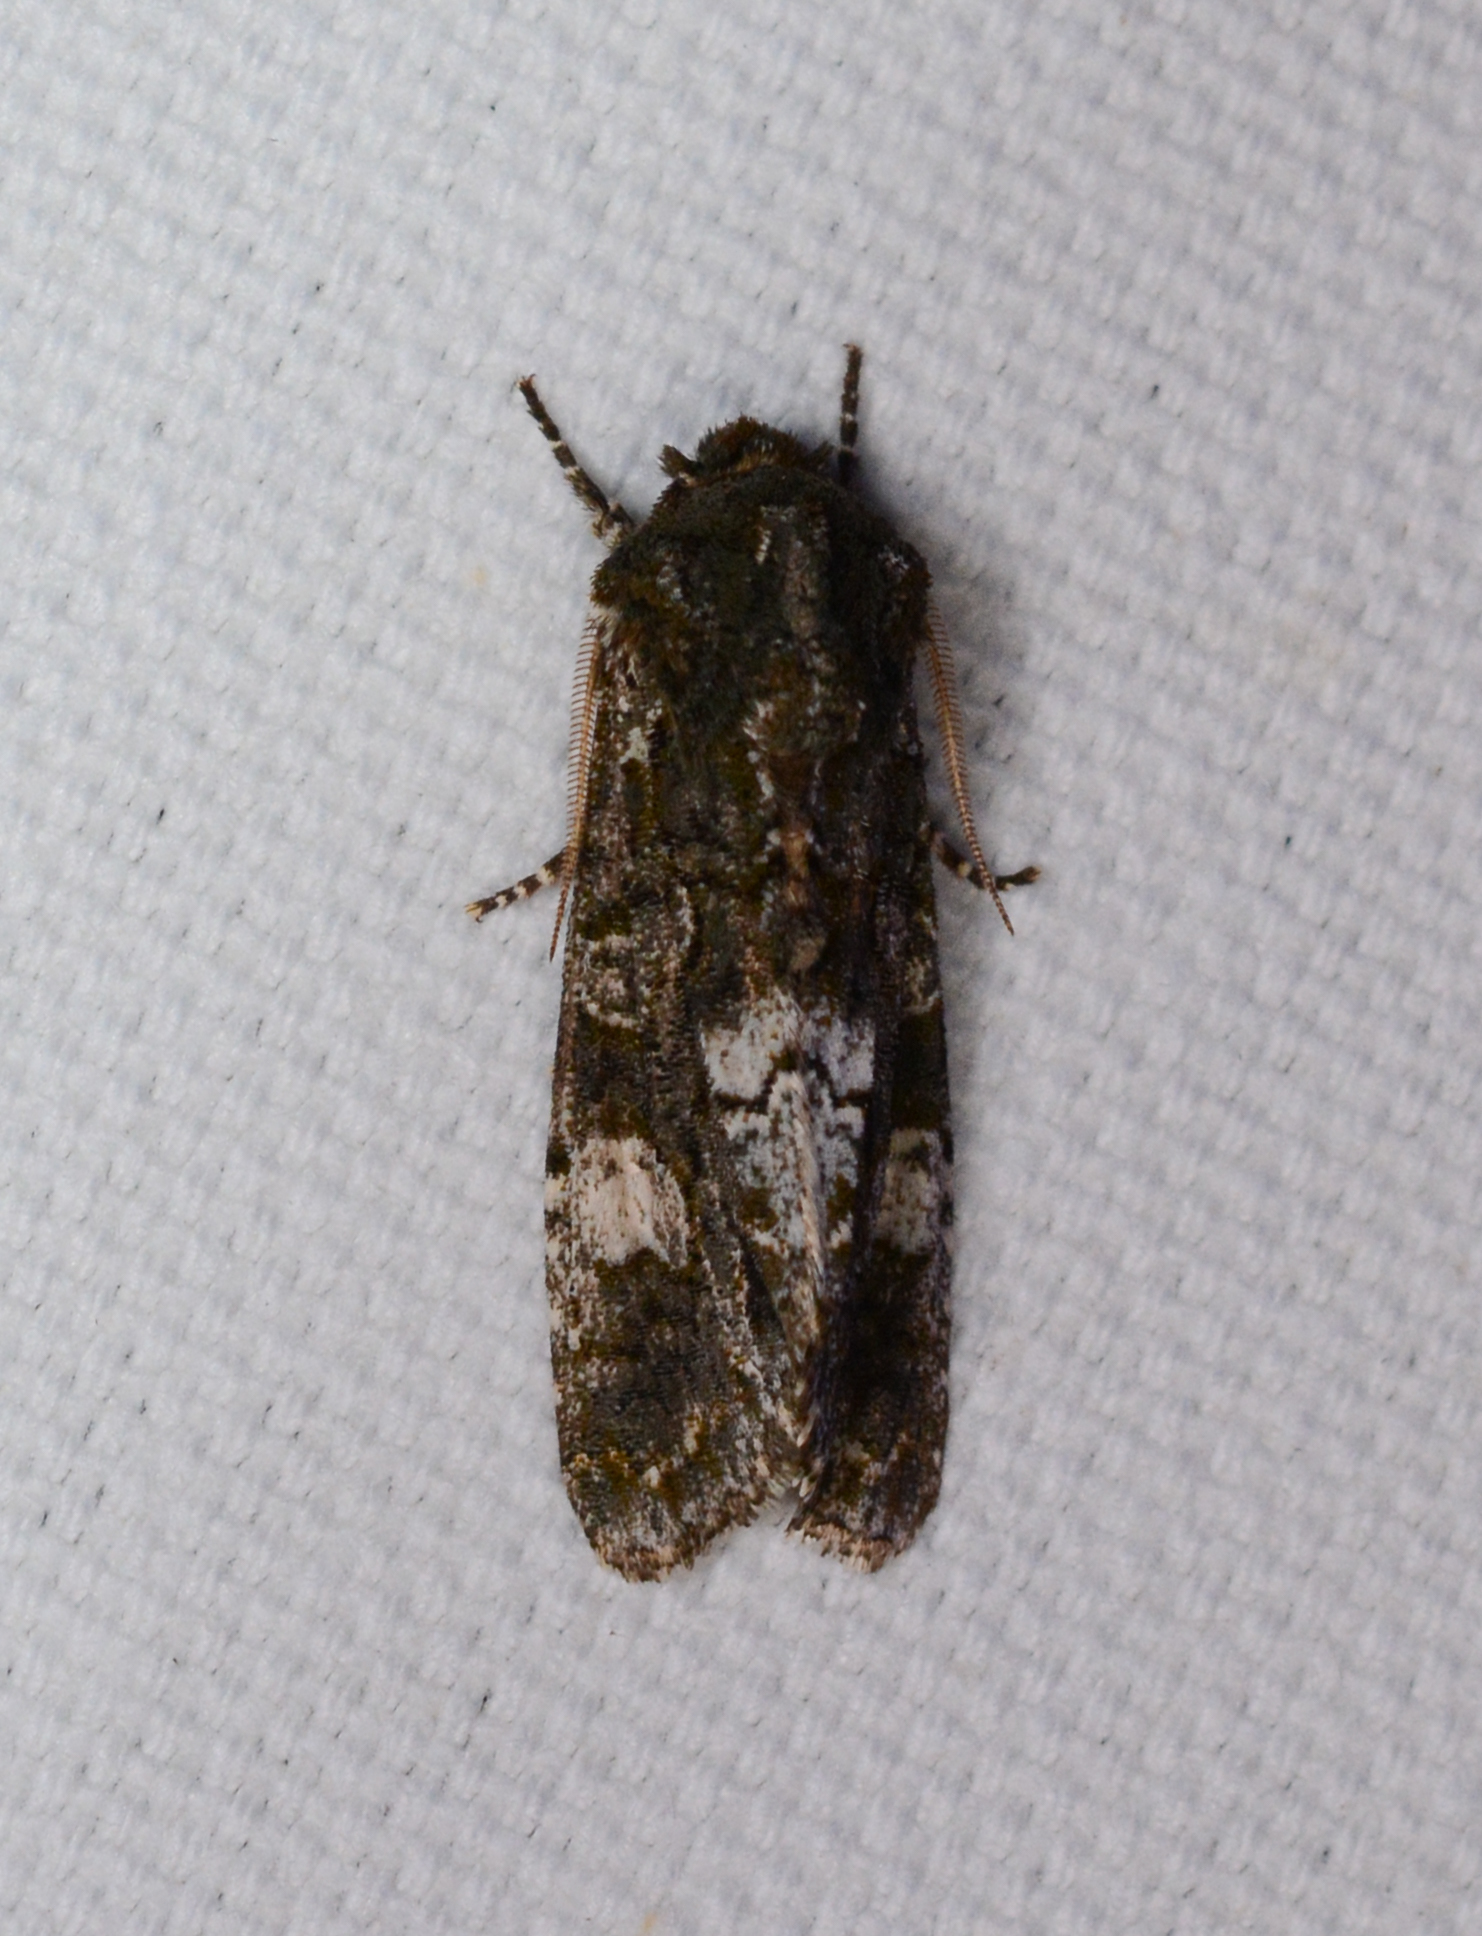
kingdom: Animalia
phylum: Arthropoda
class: Insecta
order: Lepidoptera
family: Noctuidae
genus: Psaphida
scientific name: Psaphida grotei
